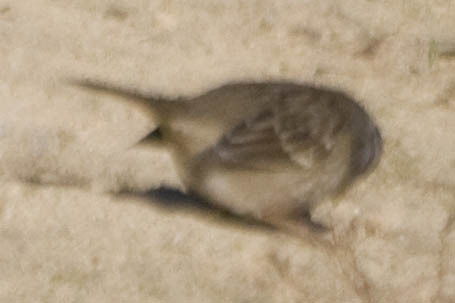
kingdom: Animalia
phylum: Chordata
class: Aves
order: Passeriformes
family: Passerellidae
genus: Zonotrichia
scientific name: Zonotrichia leucophrys
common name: White-crowned sparrow
